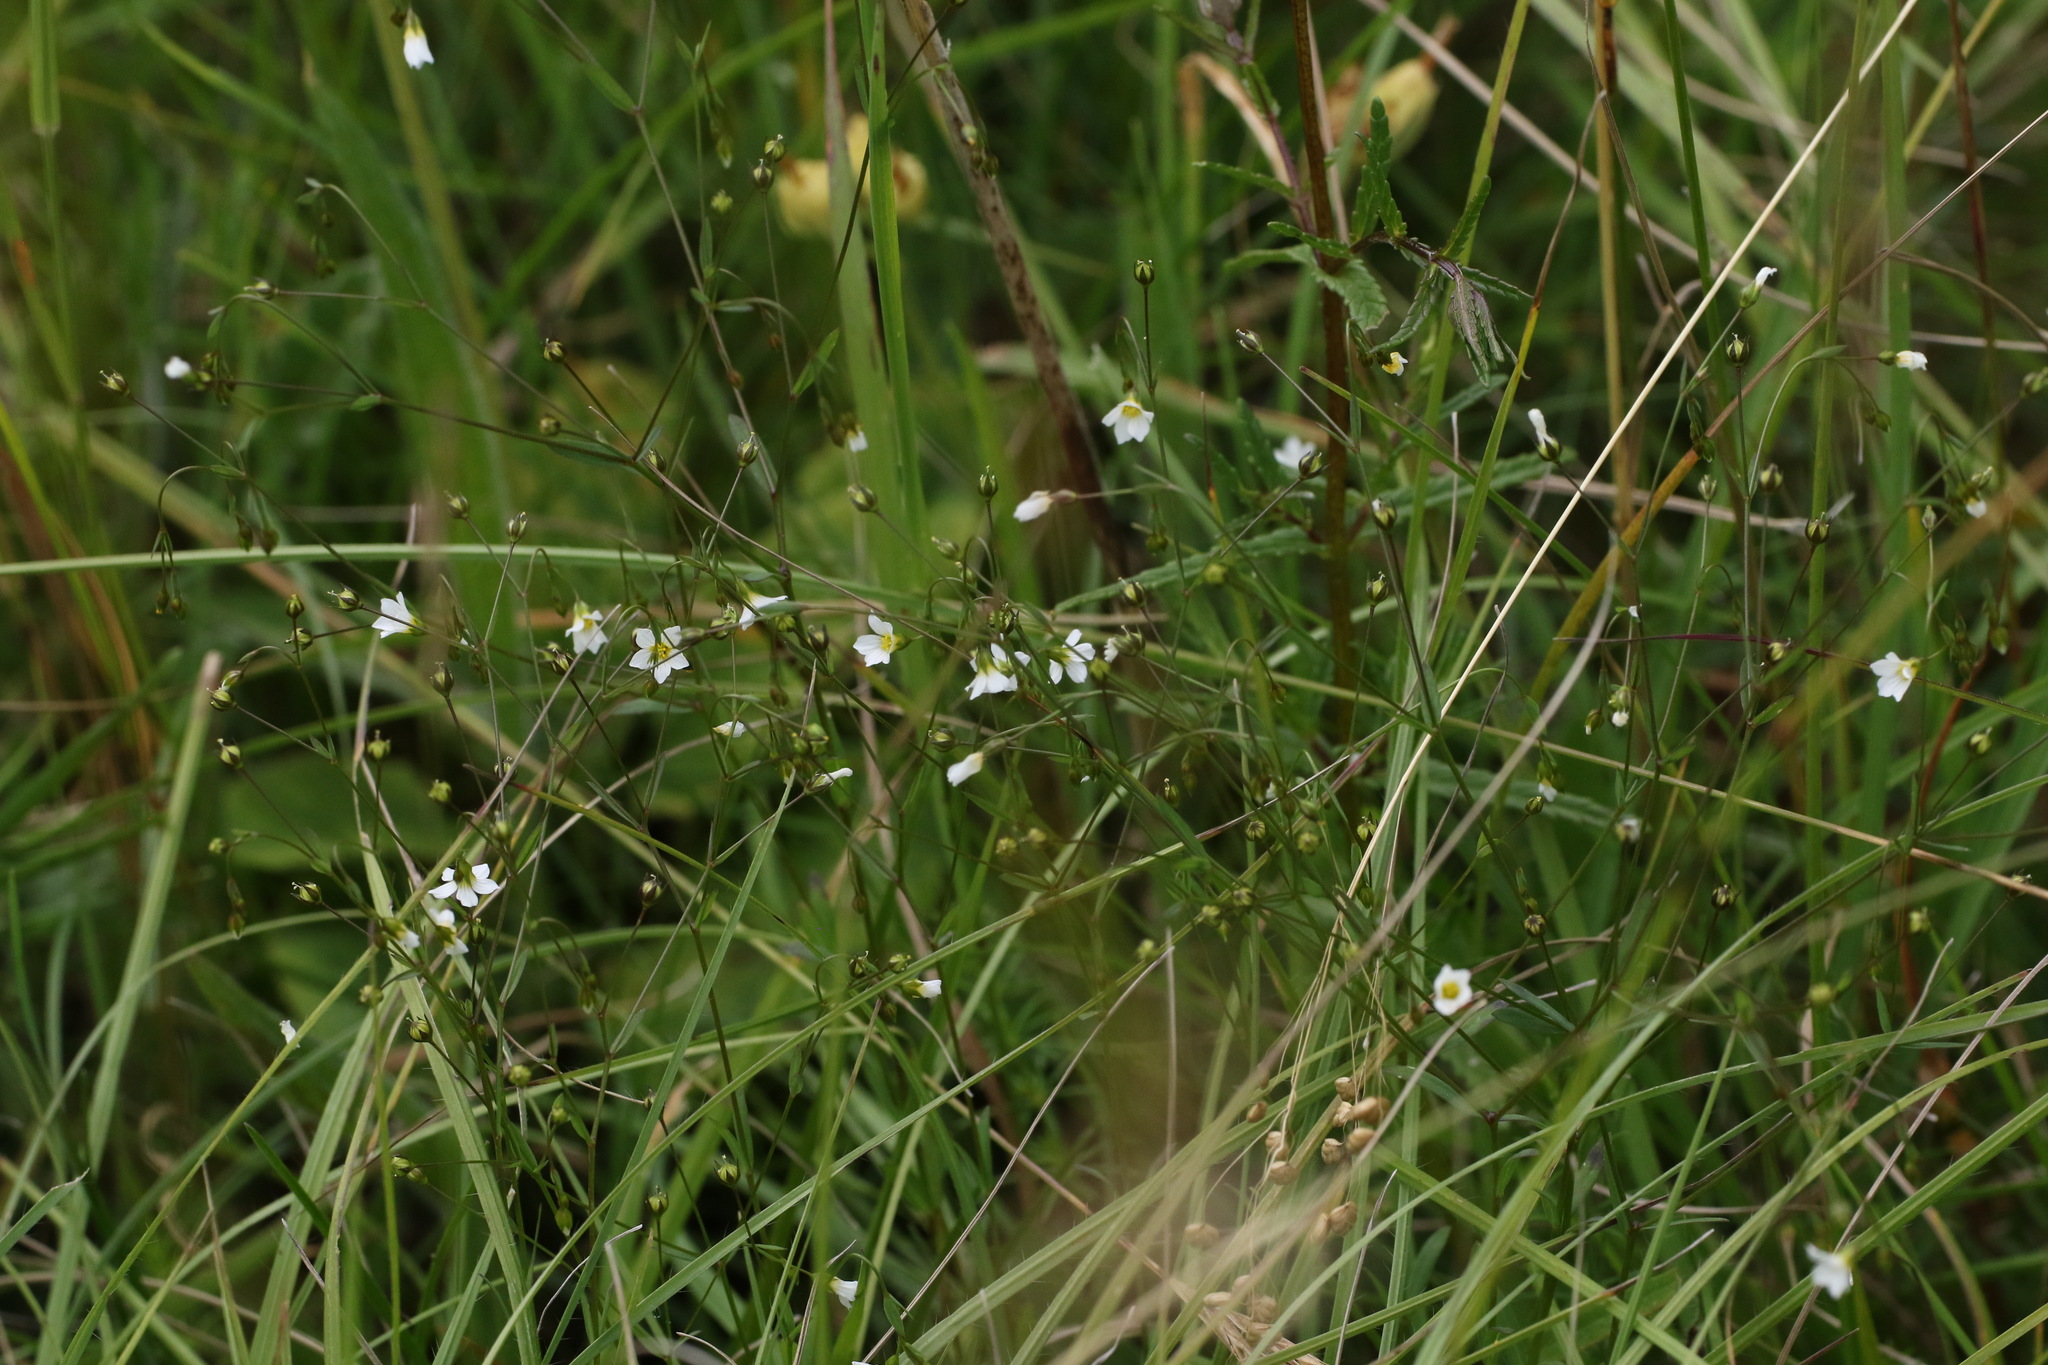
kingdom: Plantae
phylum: Tracheophyta
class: Magnoliopsida
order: Malpighiales
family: Linaceae
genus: Linum
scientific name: Linum catharticum
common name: Fairy flax
